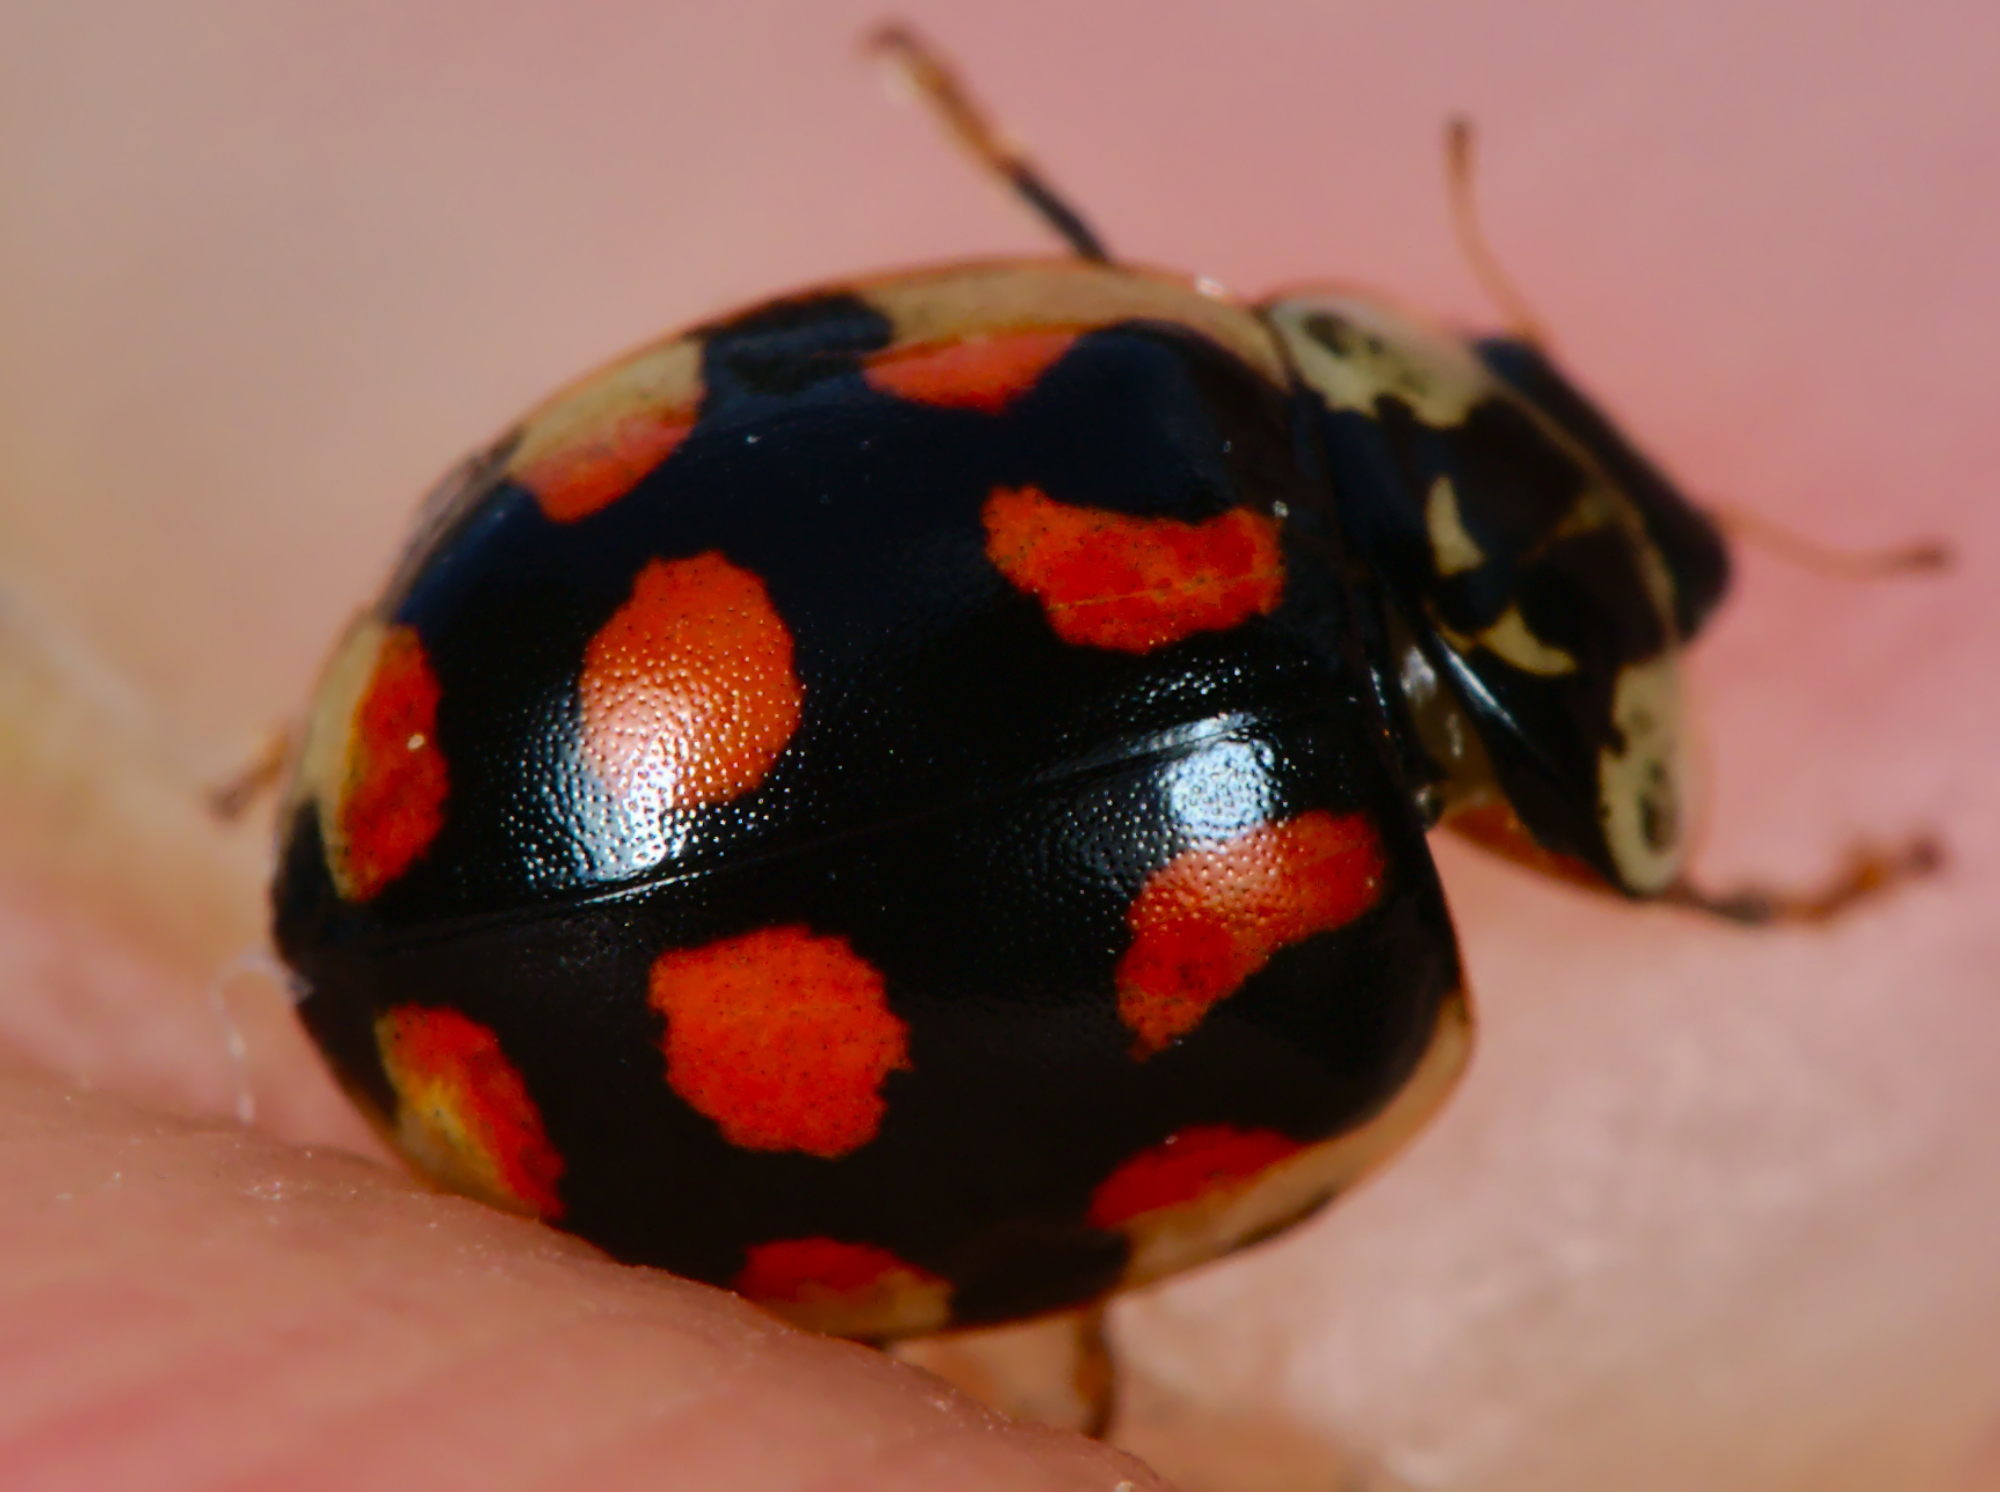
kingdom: Animalia
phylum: Arthropoda
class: Insecta
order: Coleoptera
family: Coccinellidae
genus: Adalia
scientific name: Adalia decempunctata
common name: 10-spot ladybird
